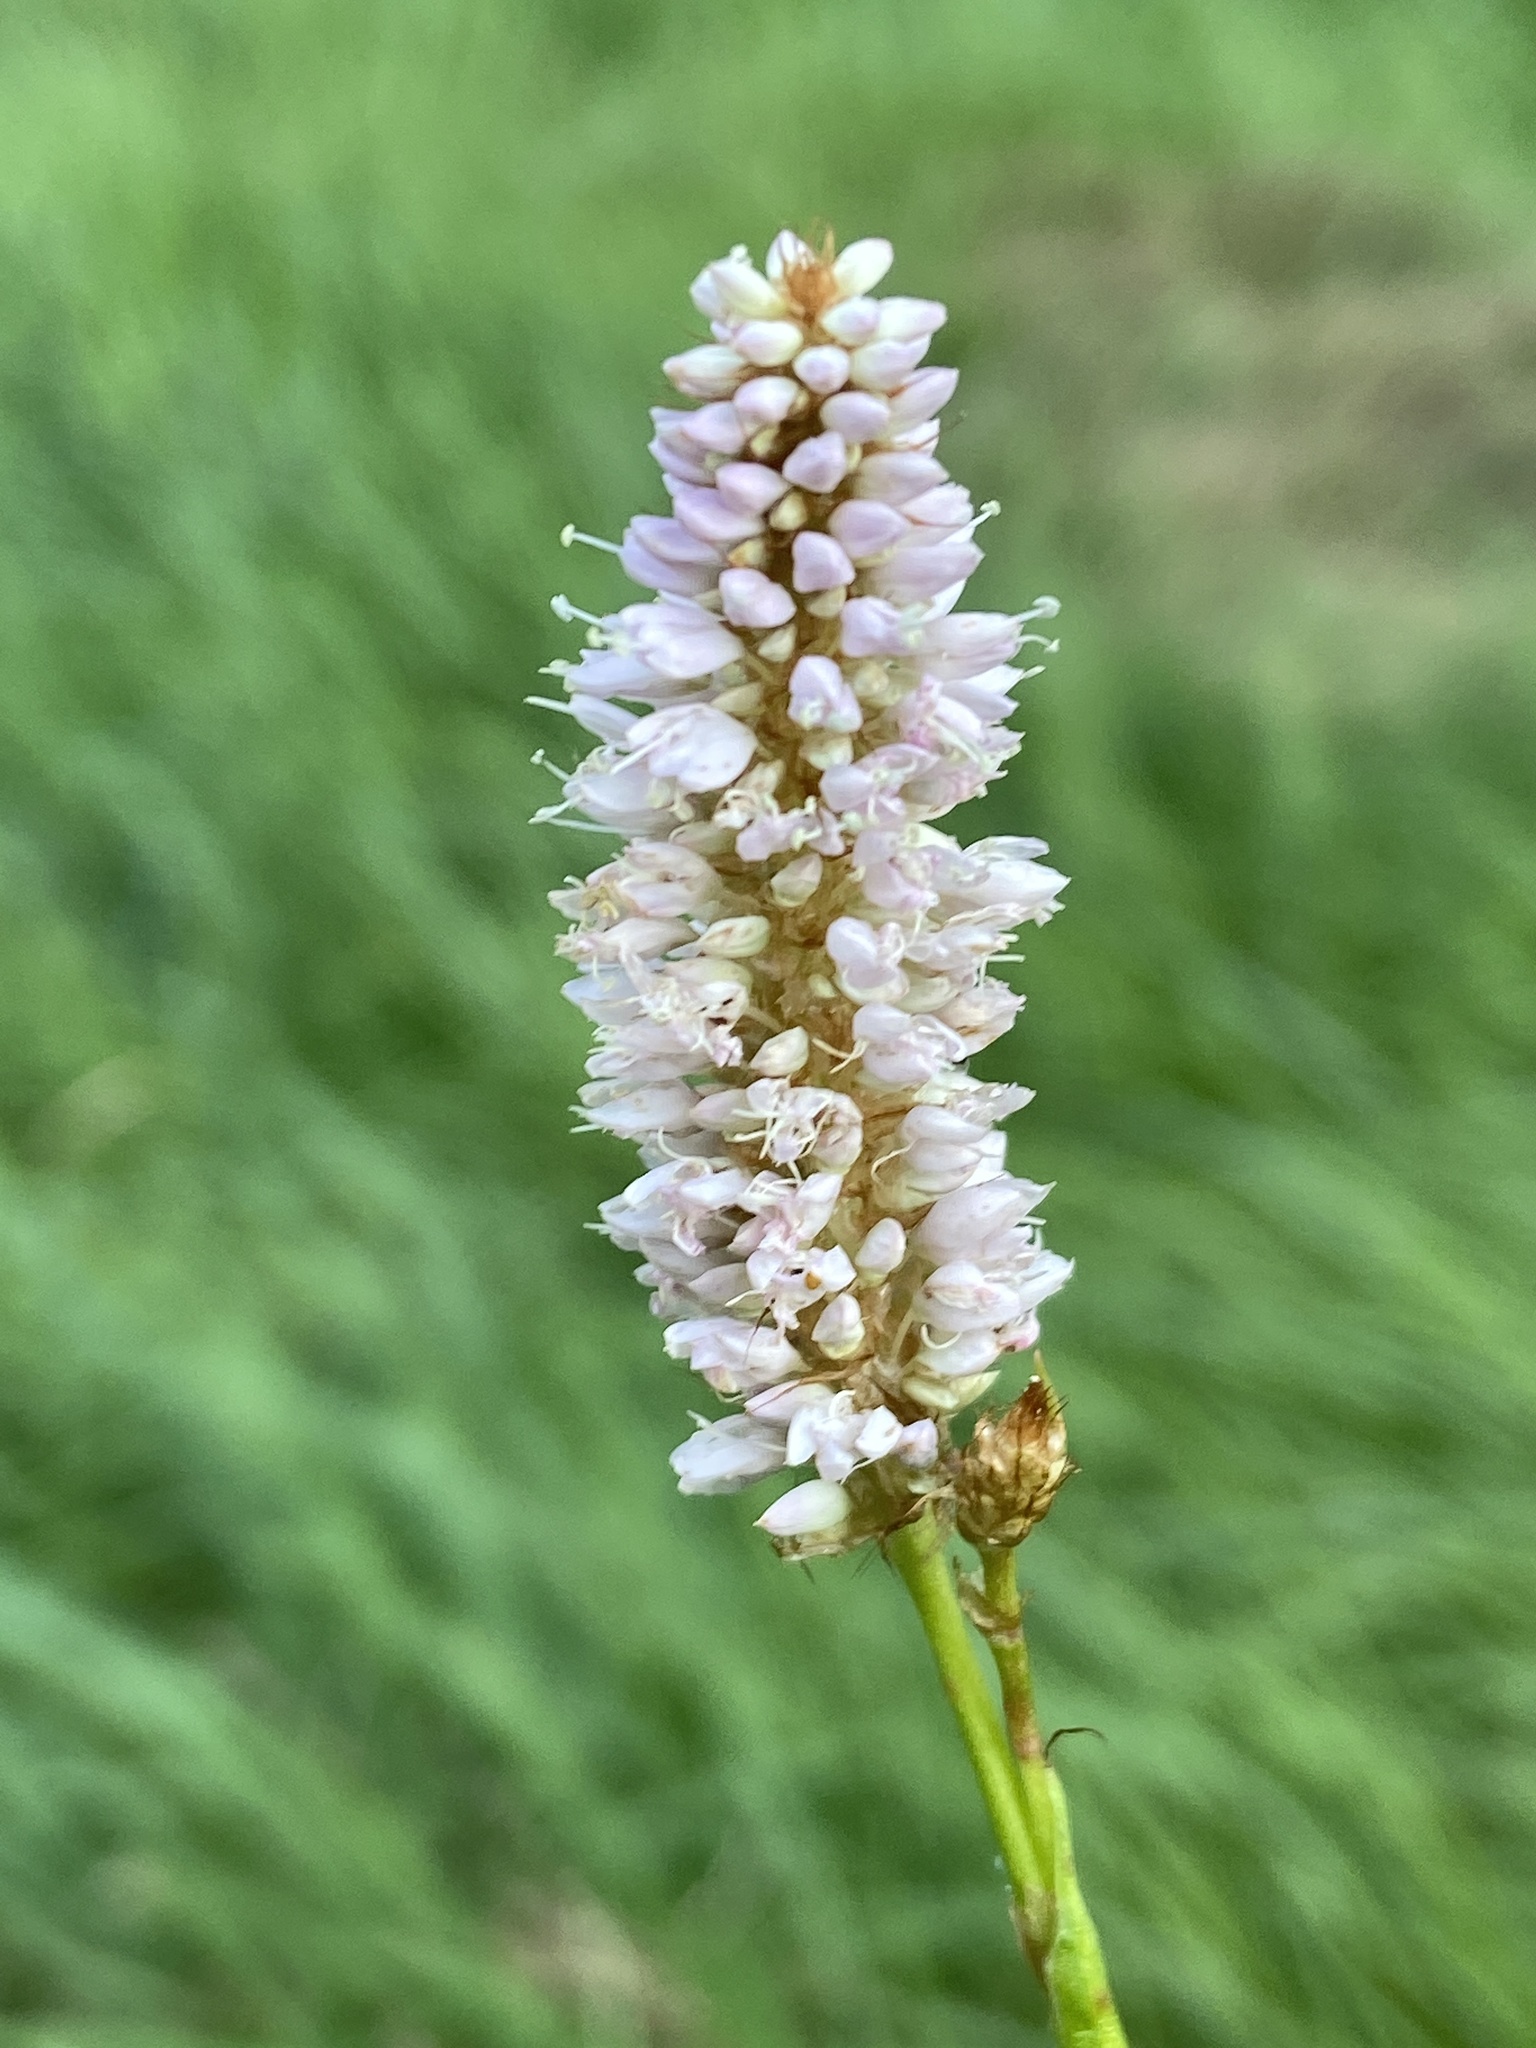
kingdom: Plantae
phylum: Tracheophyta
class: Magnoliopsida
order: Caryophyllales
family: Polygonaceae
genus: Bistorta
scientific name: Bistorta officinalis
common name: Common bistort
